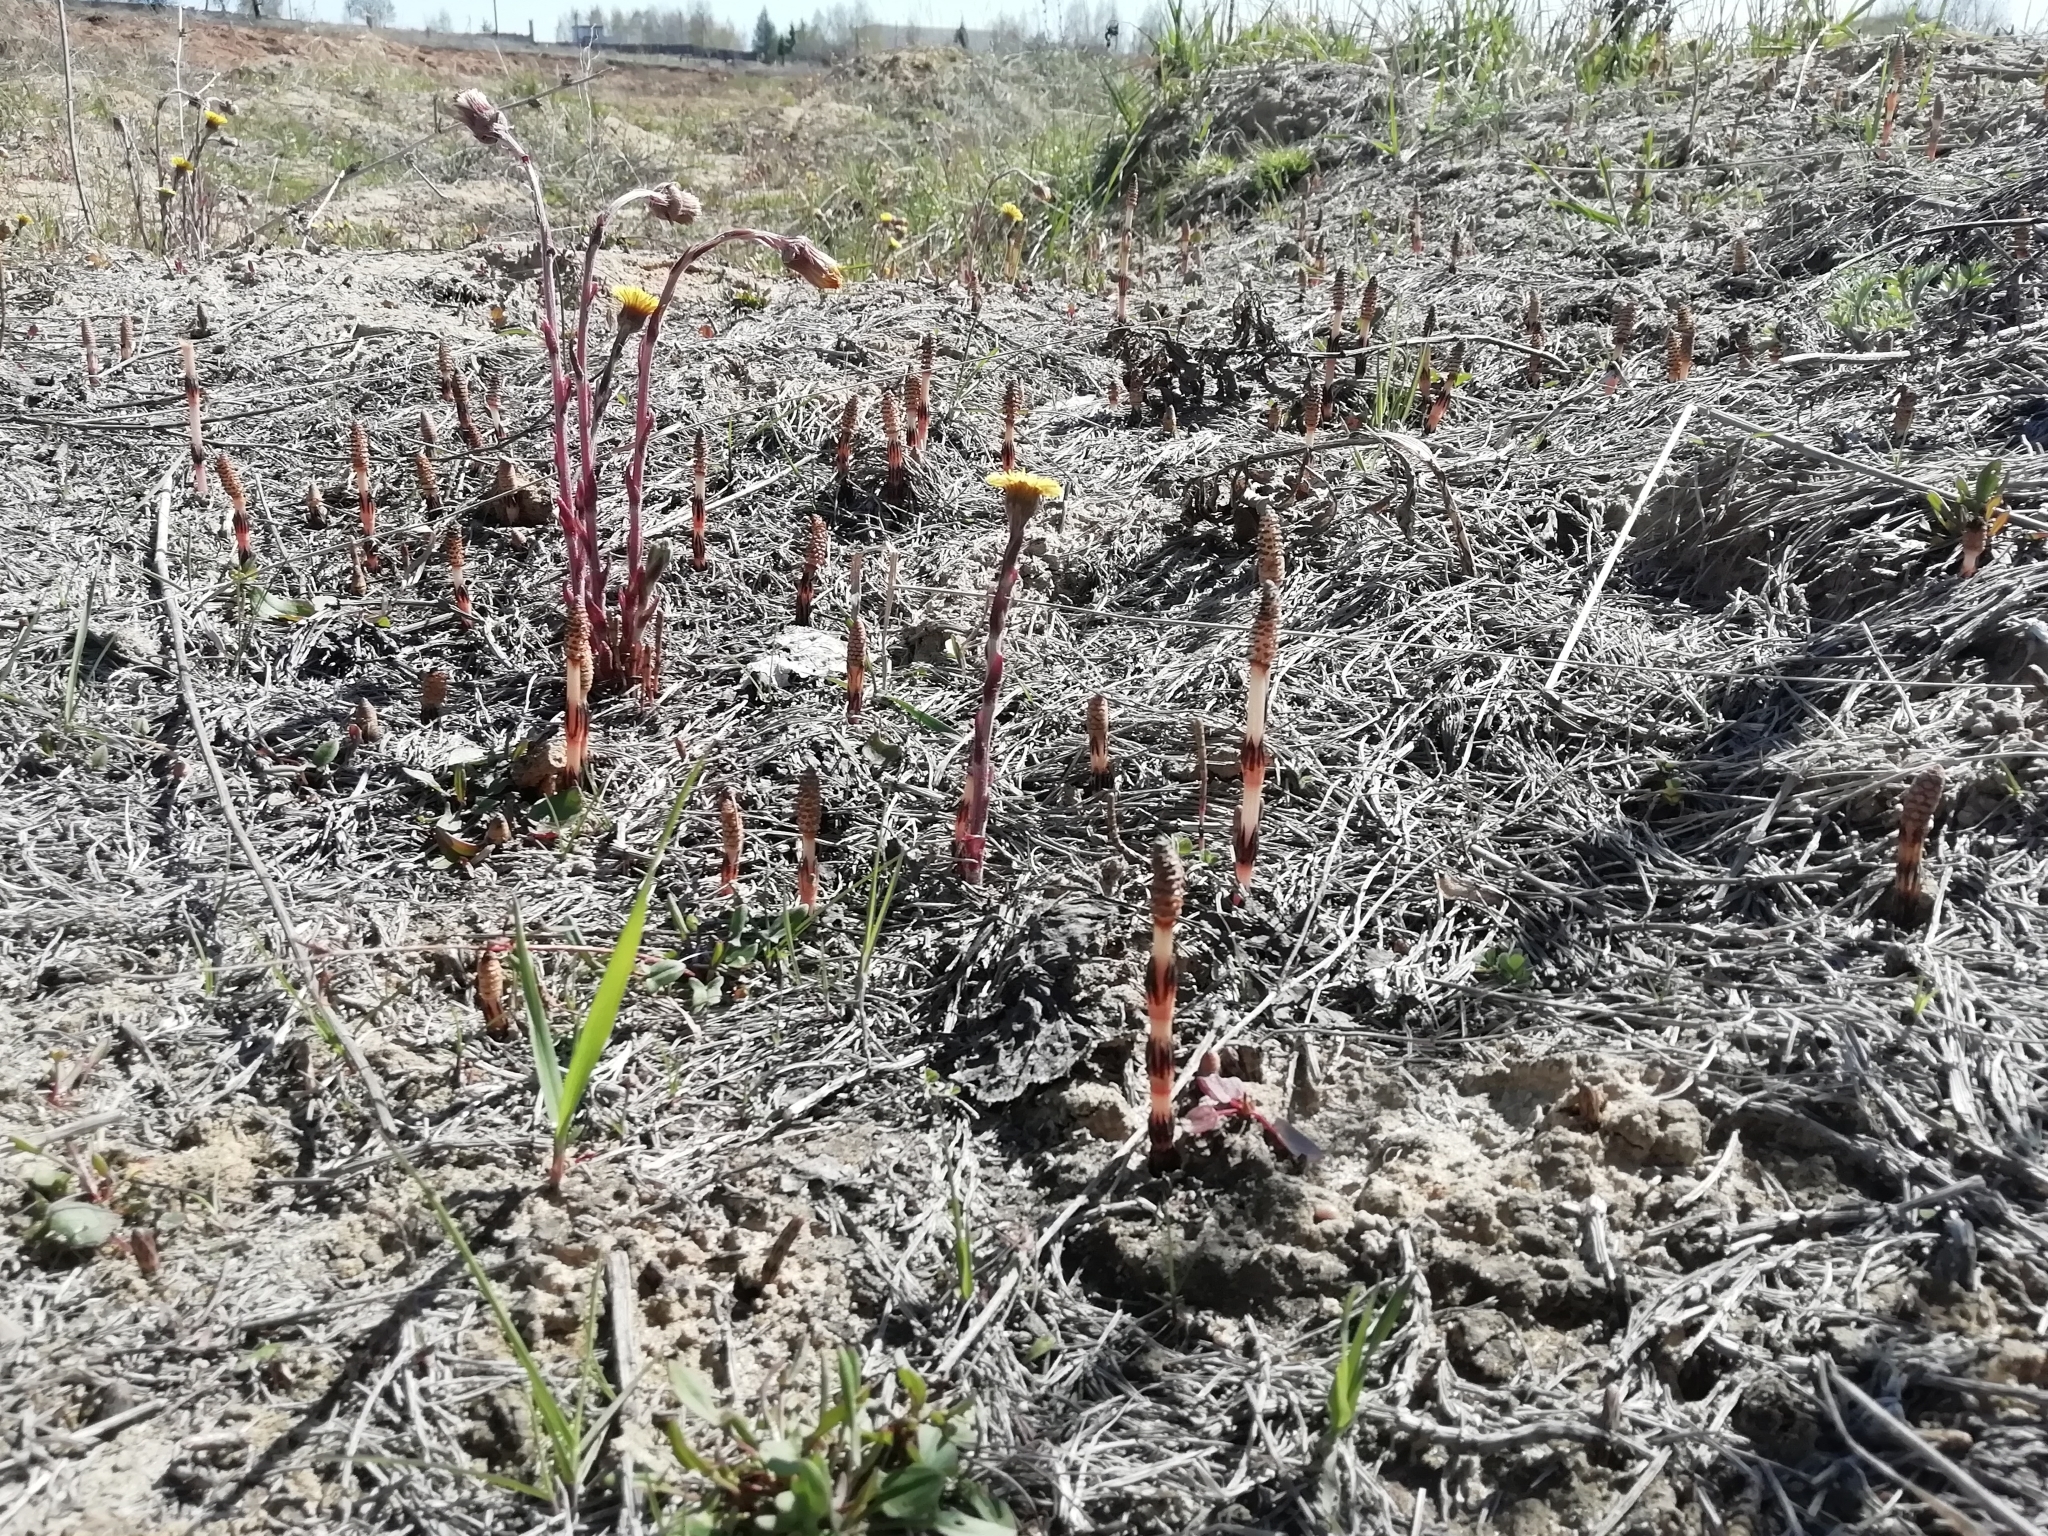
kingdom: Plantae
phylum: Tracheophyta
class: Polypodiopsida
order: Equisetales
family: Equisetaceae
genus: Equisetum
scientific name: Equisetum arvense
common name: Field horsetail
